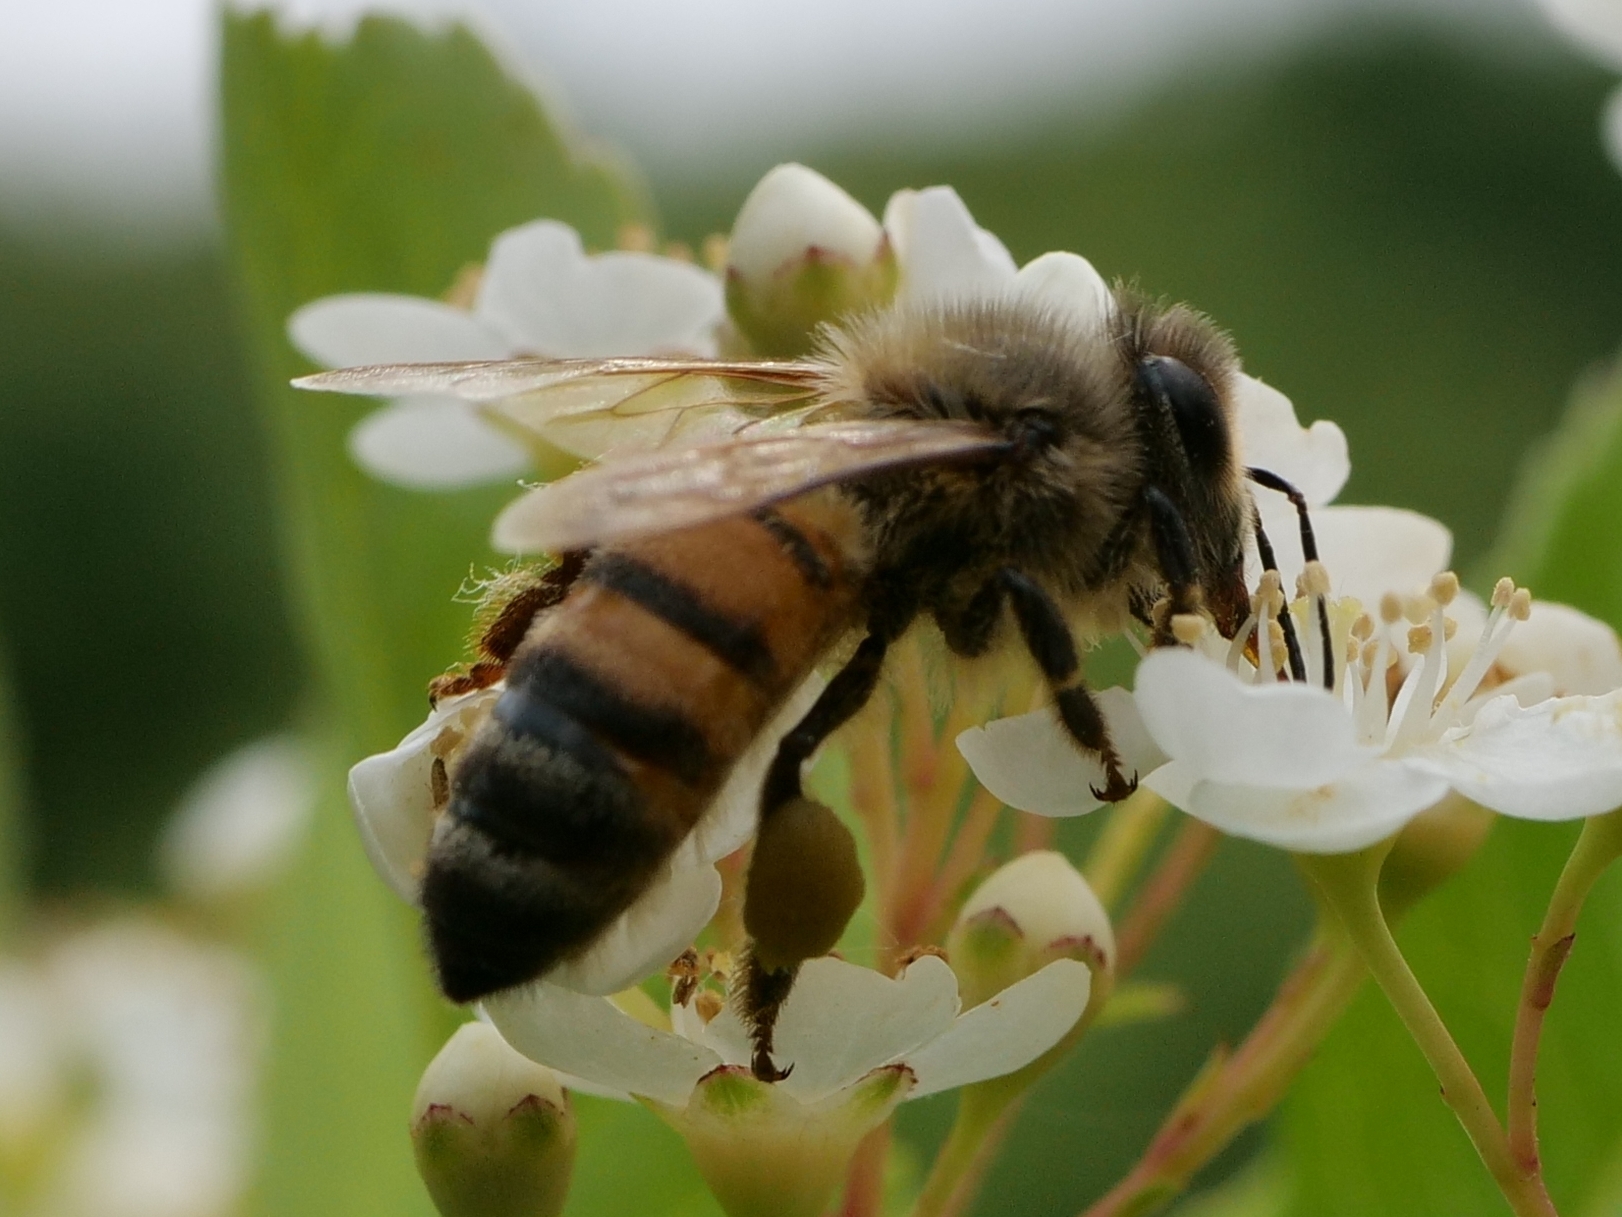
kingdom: Animalia
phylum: Arthropoda
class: Insecta
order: Hymenoptera
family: Apidae
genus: Apis
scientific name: Apis mellifera
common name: Honey bee
